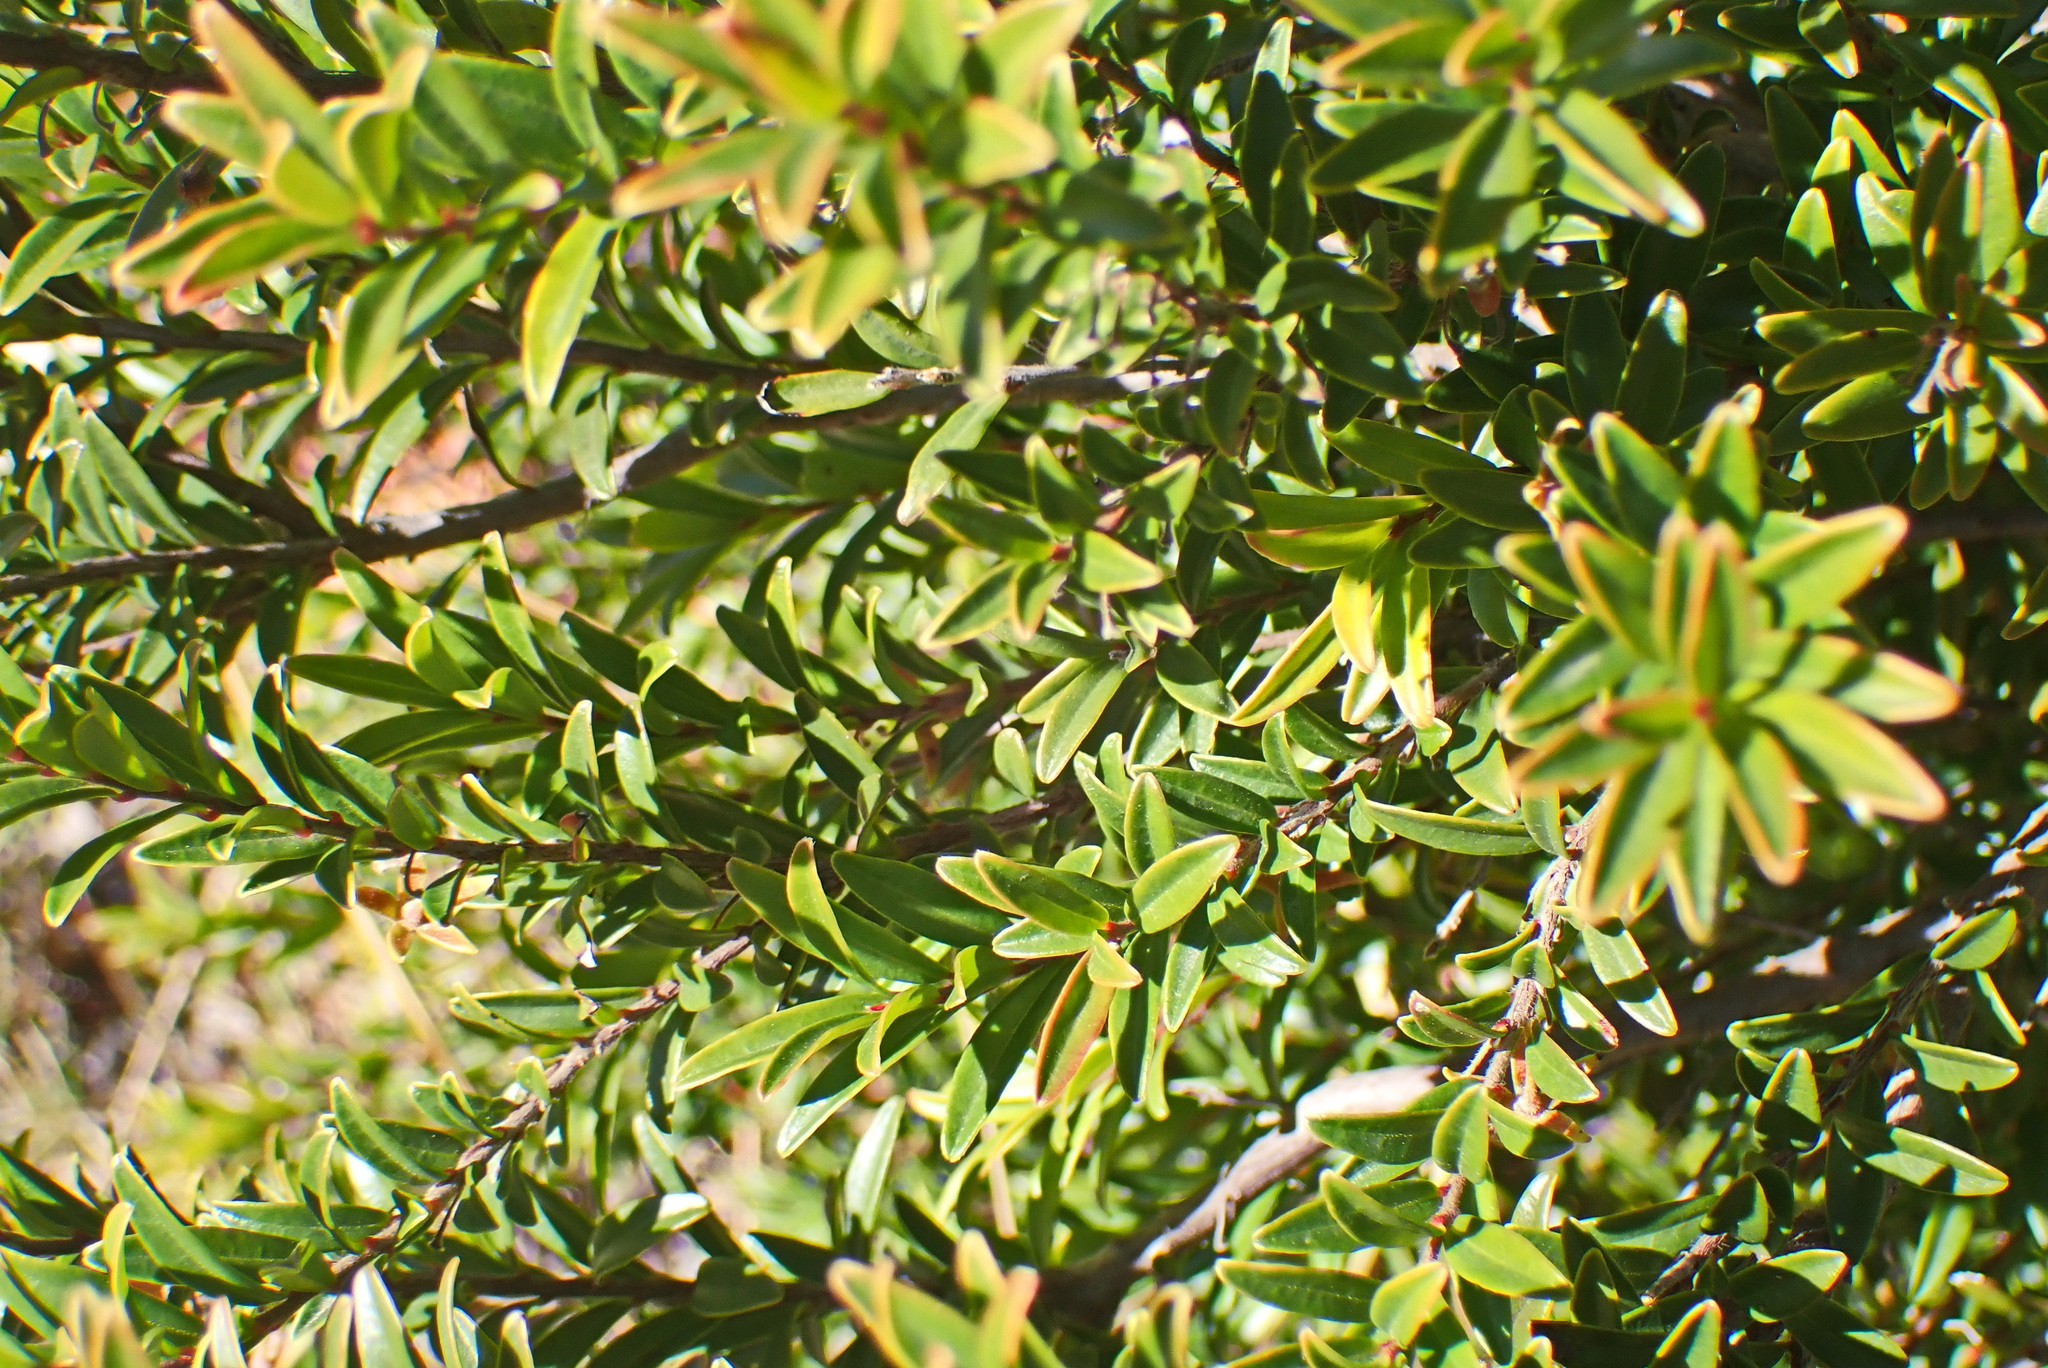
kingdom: Plantae
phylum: Tracheophyta
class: Magnoliopsida
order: Ericales
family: Ebenaceae
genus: Diospyros
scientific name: Diospyros glabra
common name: Fynbos star apple
